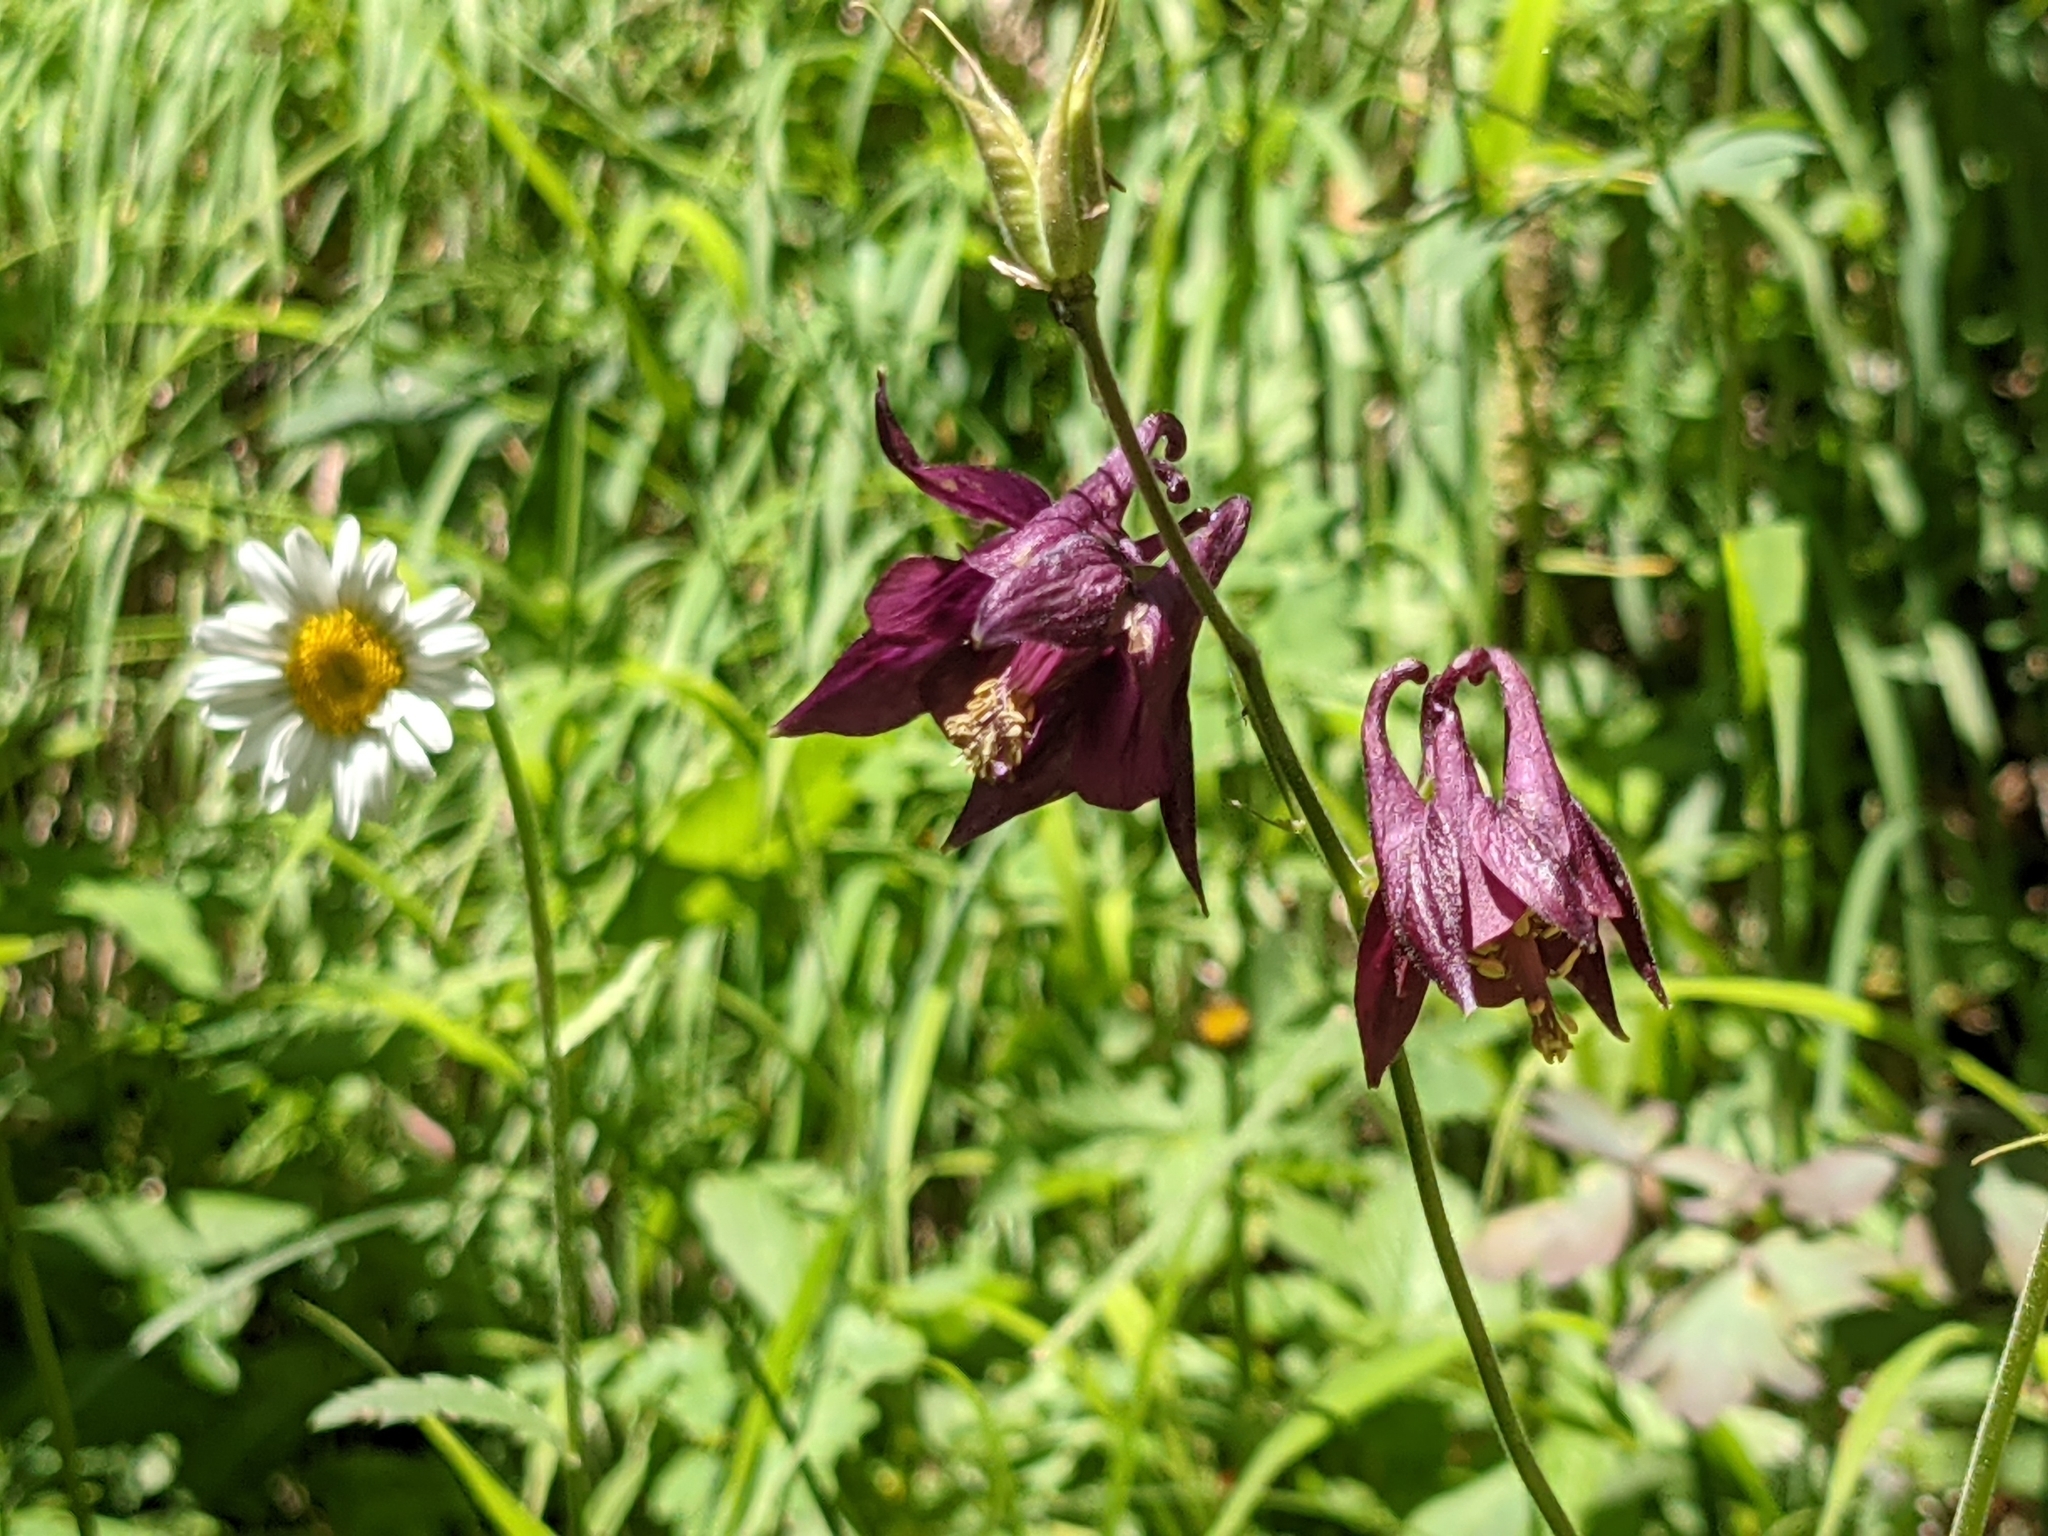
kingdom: Plantae
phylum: Tracheophyta
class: Magnoliopsida
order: Ranunculales
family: Ranunculaceae
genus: Aquilegia
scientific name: Aquilegia atrata
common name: Dark columbine
